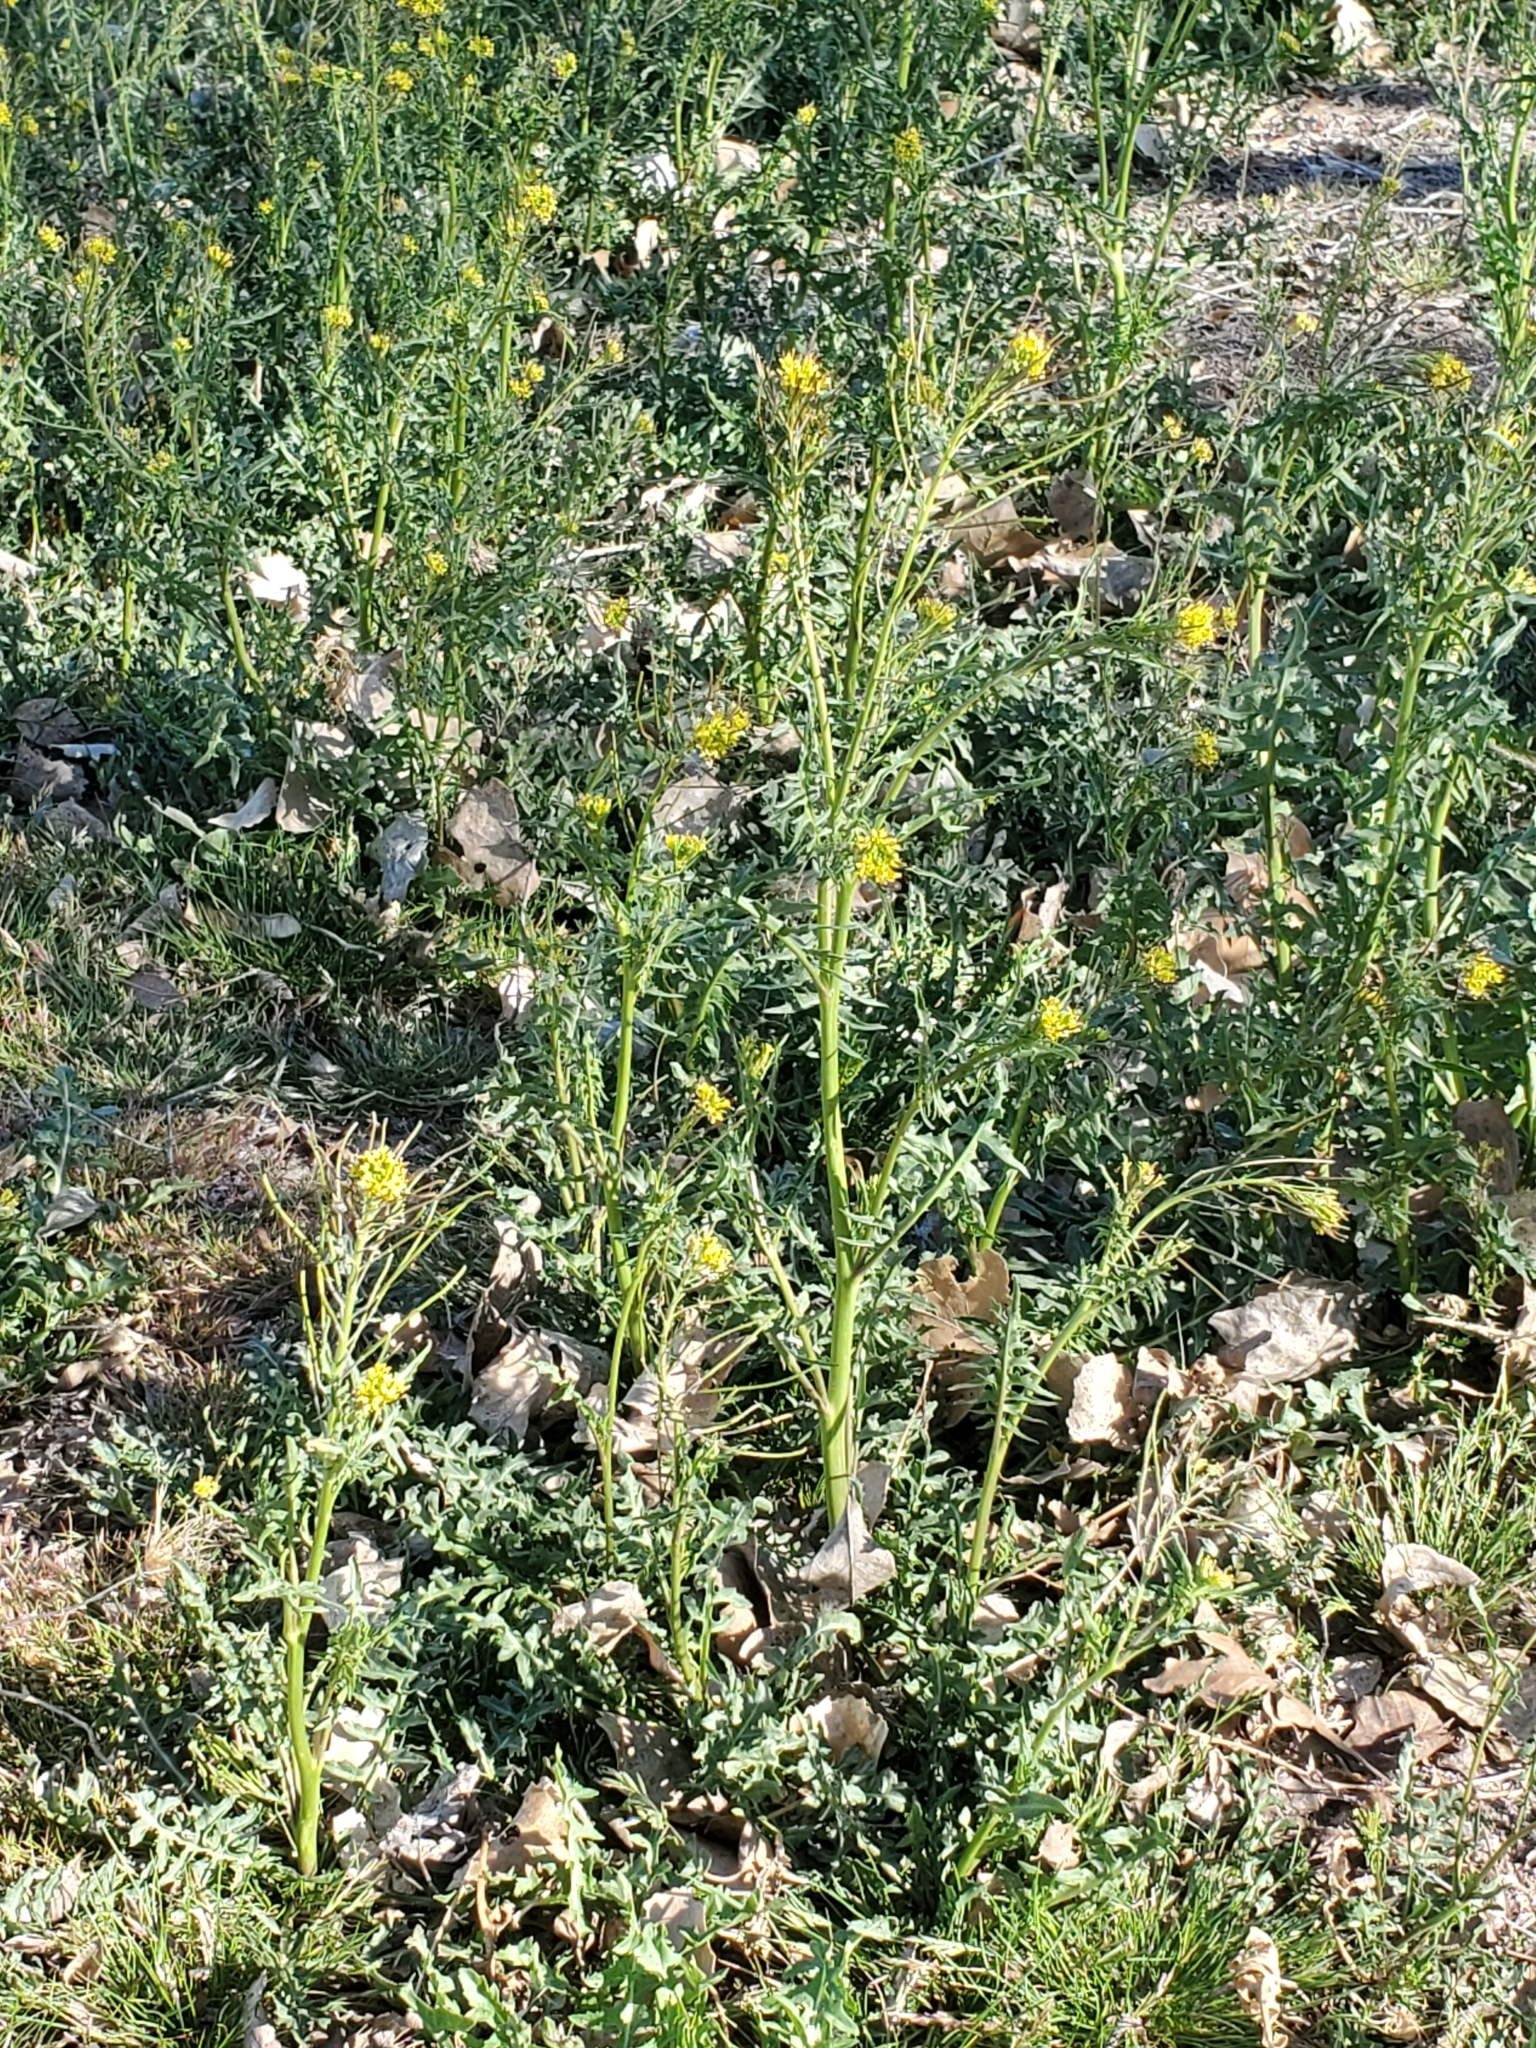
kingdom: Plantae
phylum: Tracheophyta
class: Magnoliopsida
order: Brassicales
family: Brassicaceae
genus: Sisymbrium
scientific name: Sisymbrium irio
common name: London rocket
